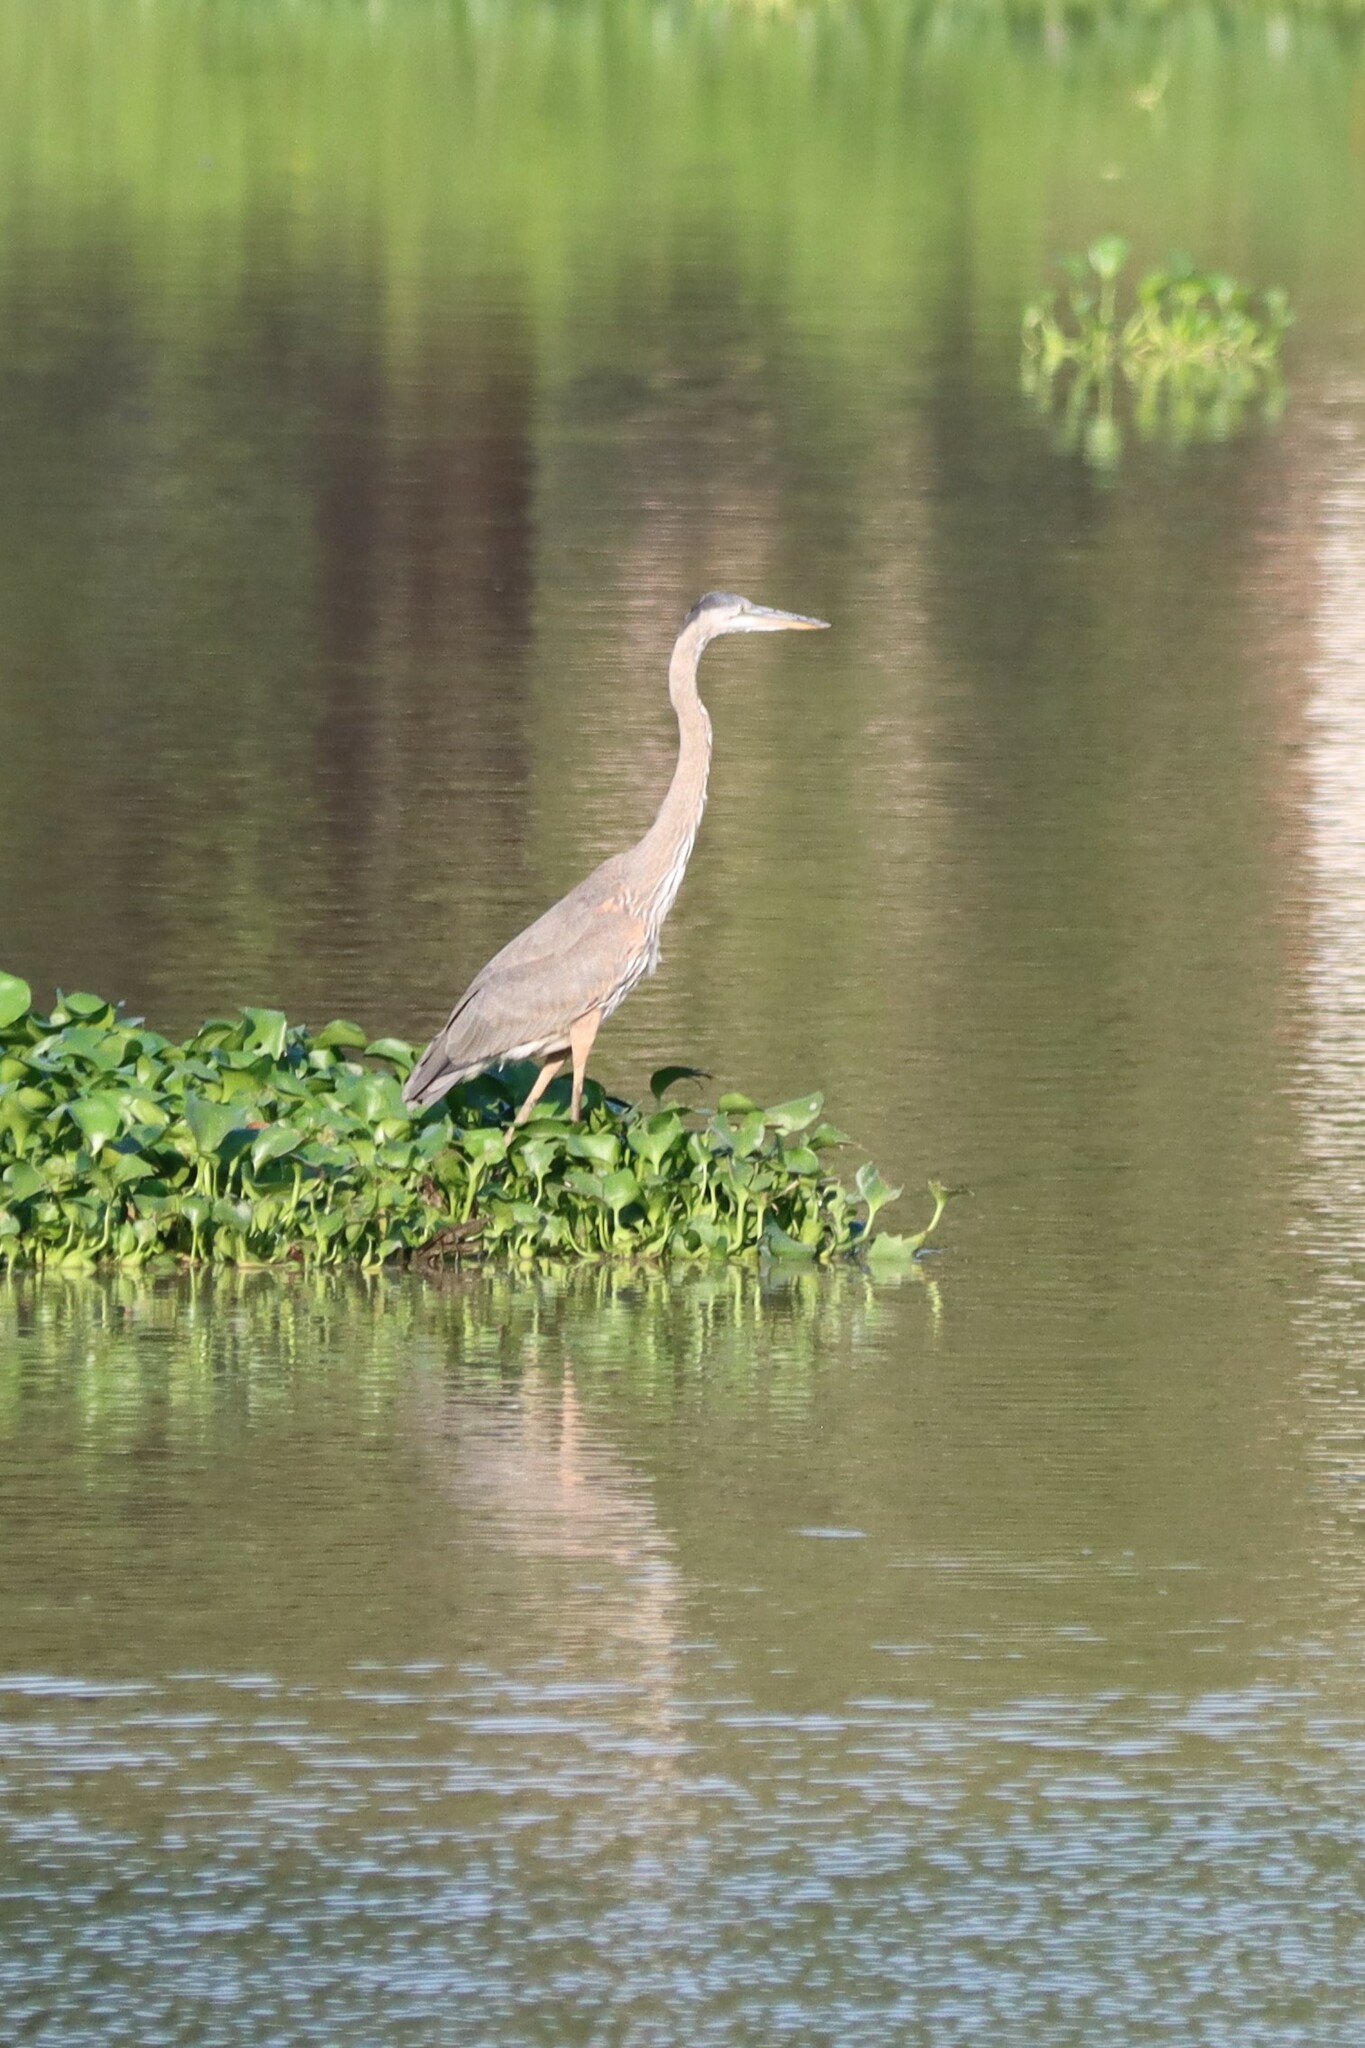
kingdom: Animalia
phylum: Chordata
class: Aves
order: Pelecaniformes
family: Ardeidae
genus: Ardea
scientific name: Ardea herodias
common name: Great blue heron
